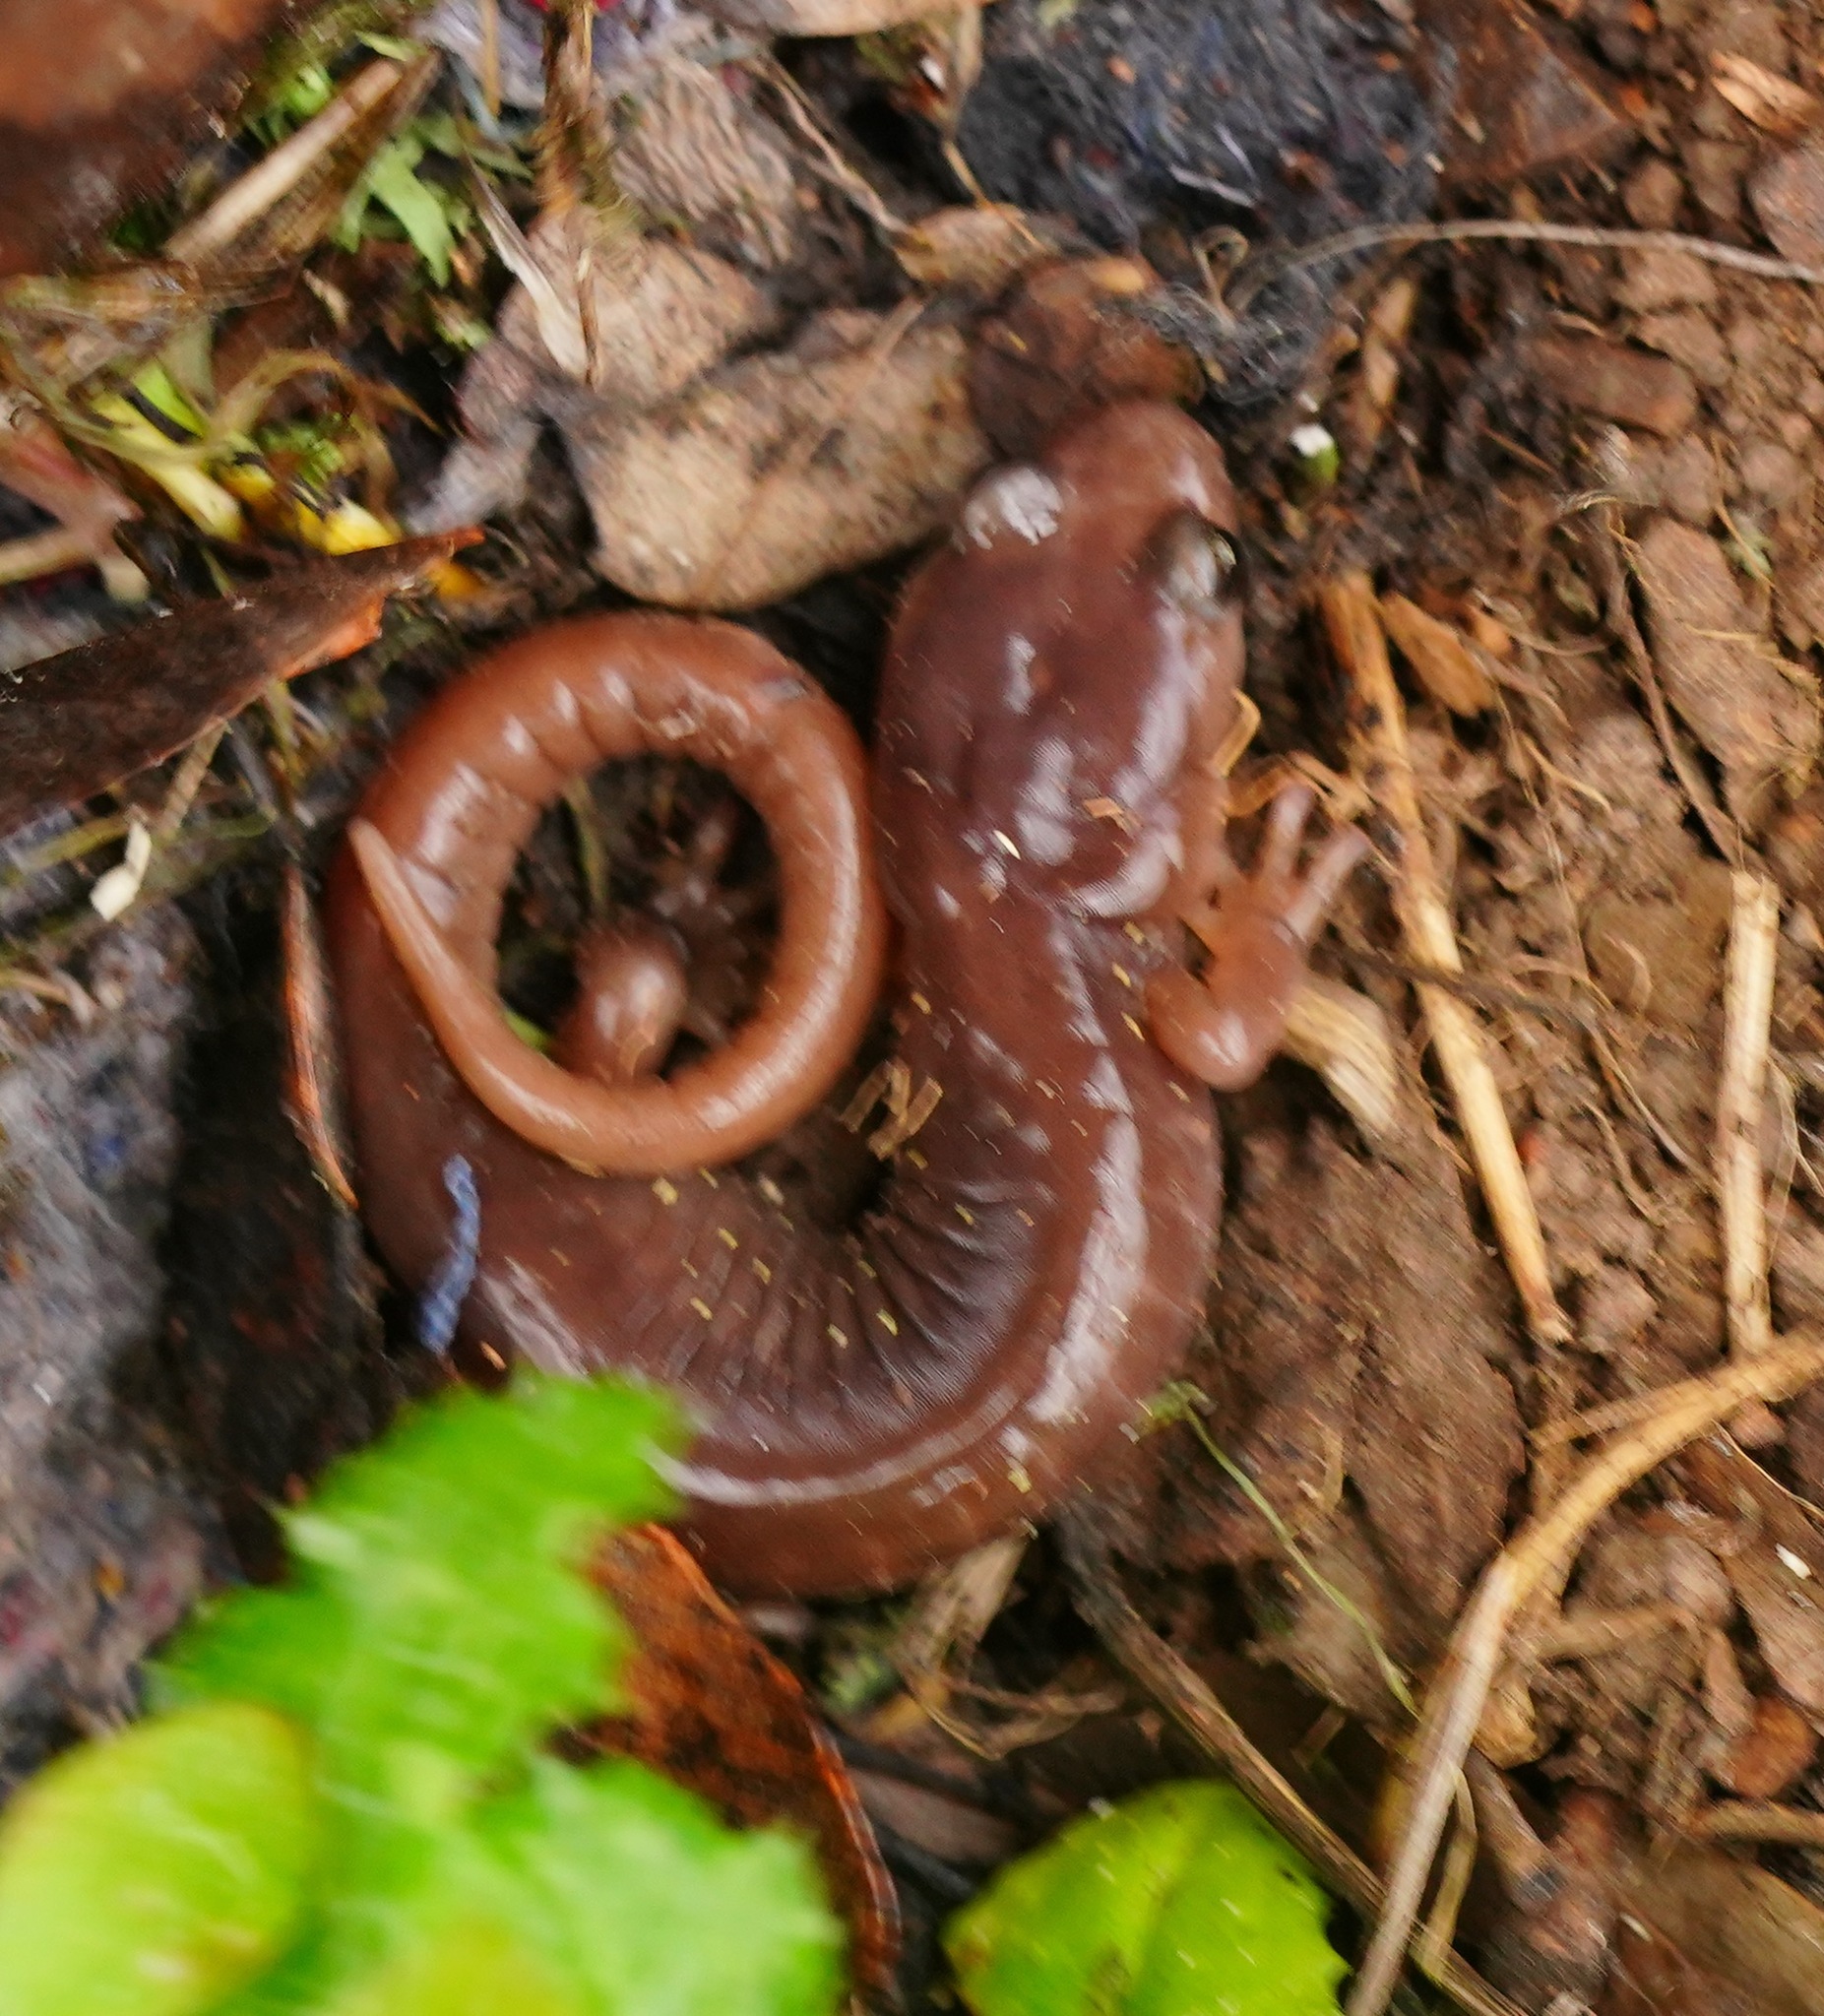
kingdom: Animalia
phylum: Chordata
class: Amphibia
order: Caudata
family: Plethodontidae
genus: Aneides
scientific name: Aneides lugubris
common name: Arboreal salamander
